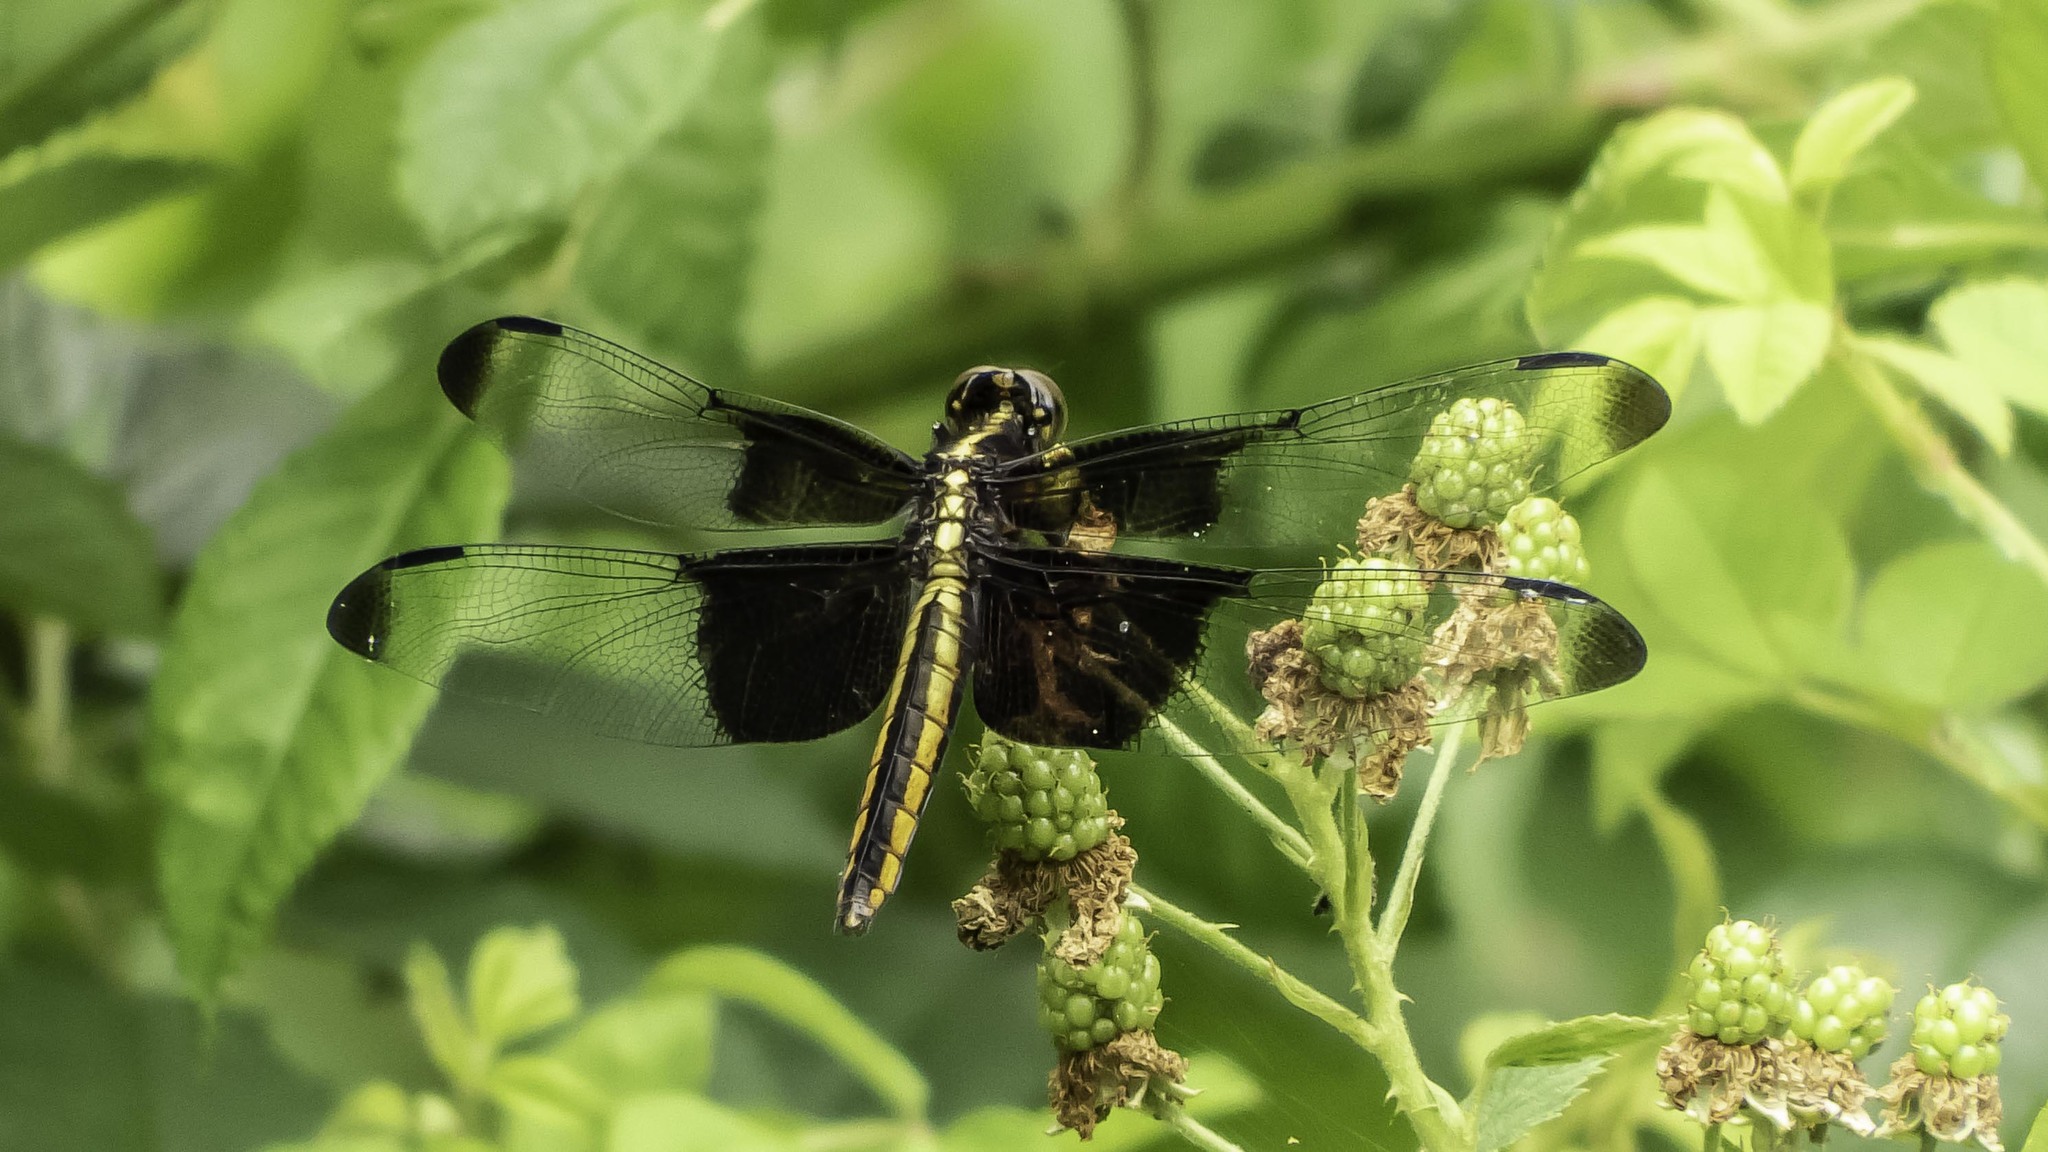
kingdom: Animalia
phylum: Arthropoda
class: Insecta
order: Odonata
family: Libellulidae
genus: Libellula
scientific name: Libellula luctuosa
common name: Widow skimmer
